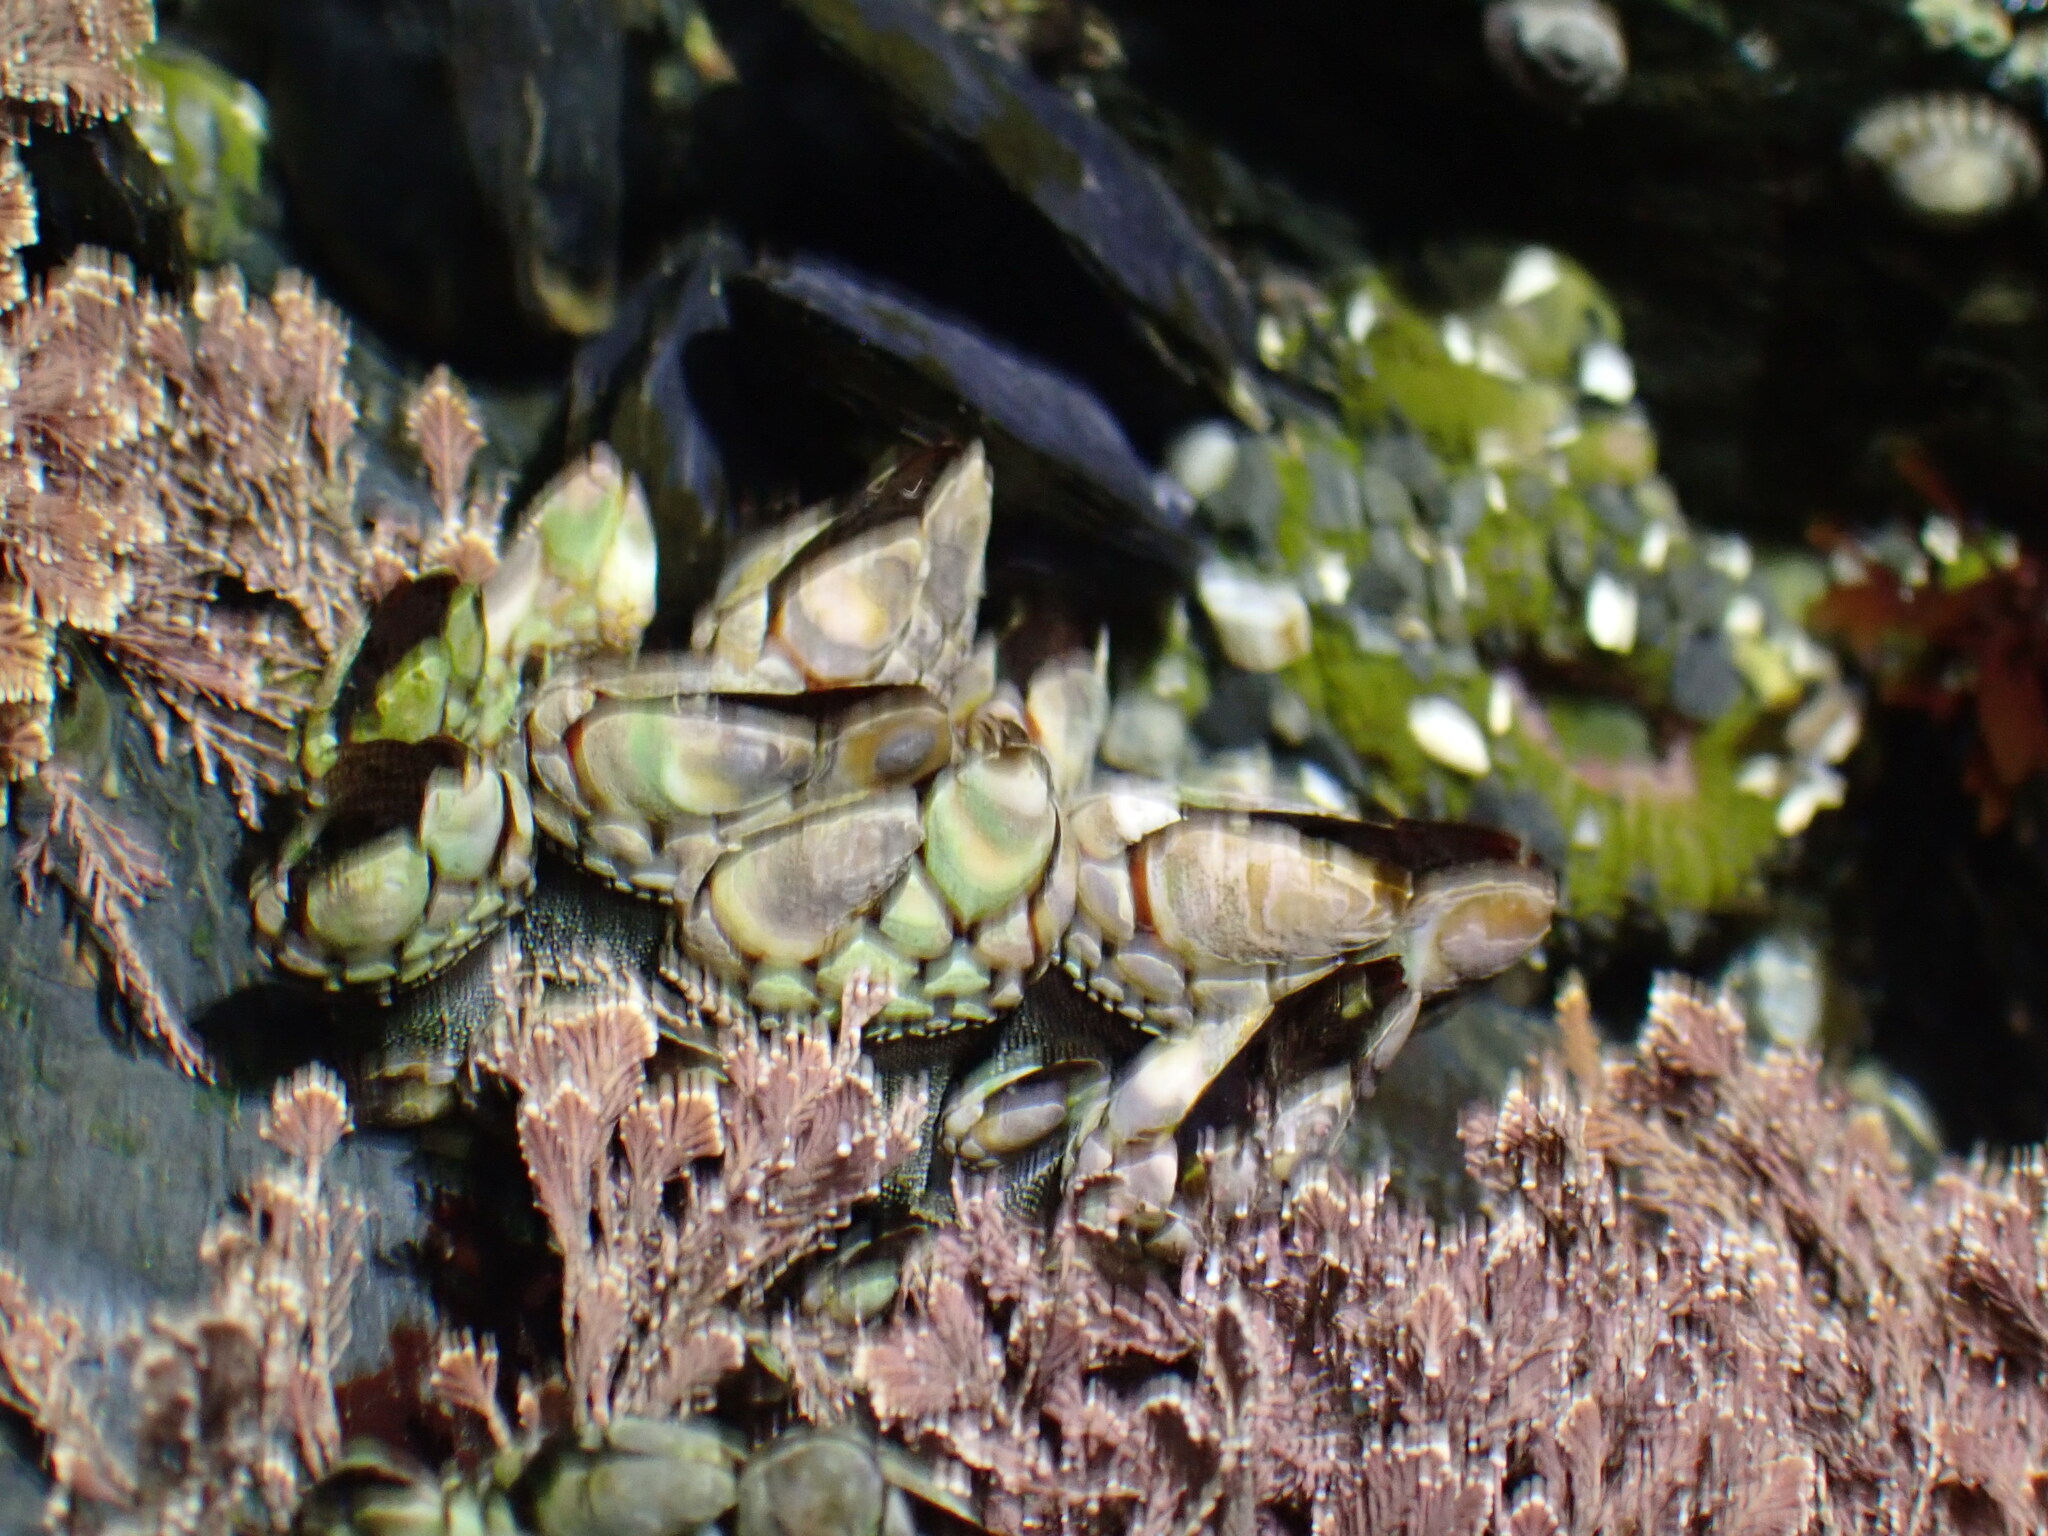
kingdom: Animalia
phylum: Arthropoda
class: Maxillopoda
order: Pedunculata
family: Pollicipedidae
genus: Pollicipes
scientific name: Pollicipes polymerus
